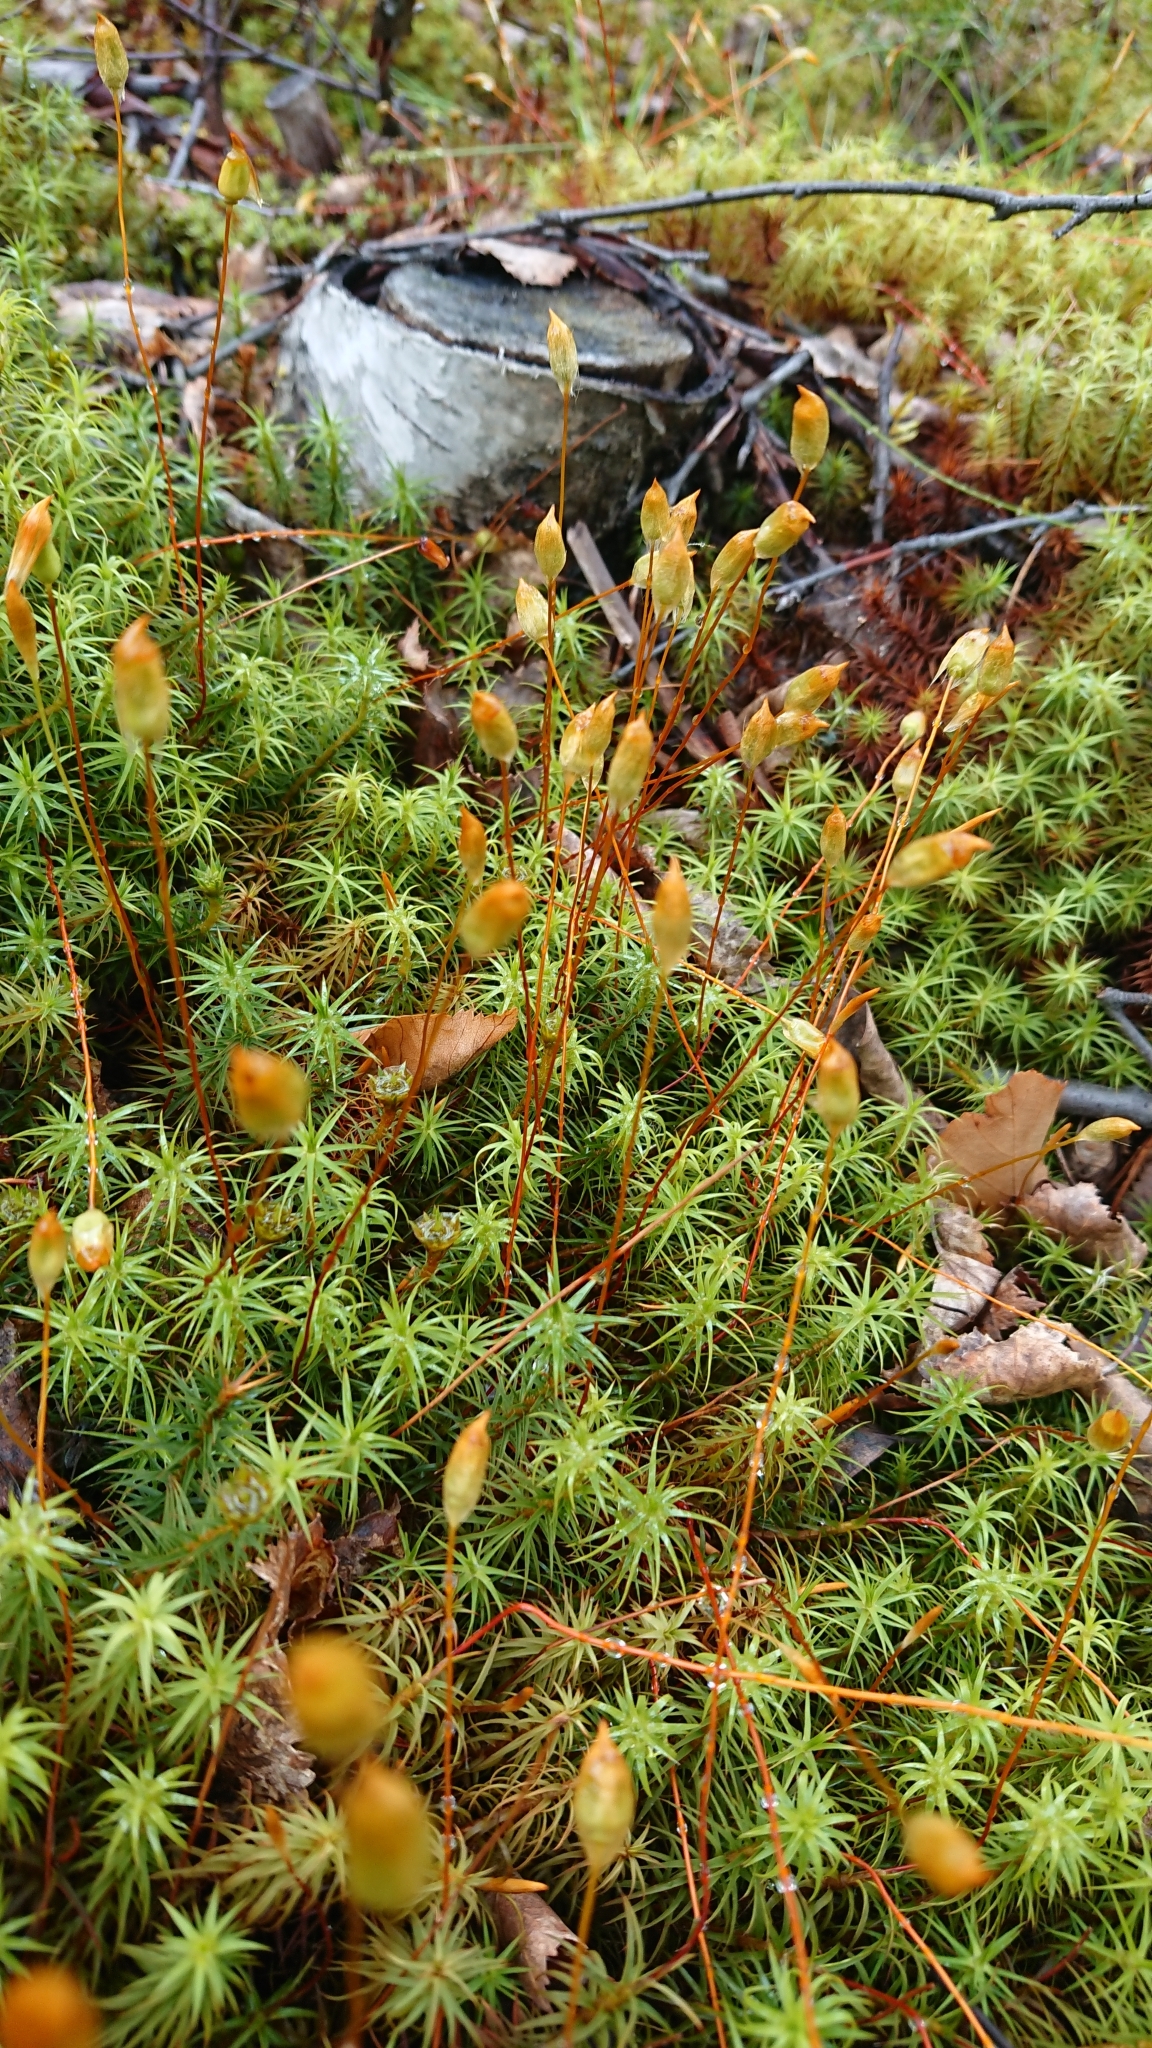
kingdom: Plantae
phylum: Bryophyta
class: Polytrichopsida
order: Polytrichales
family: Polytrichaceae
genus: Polytrichum
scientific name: Polytrichum commune
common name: Common haircap
